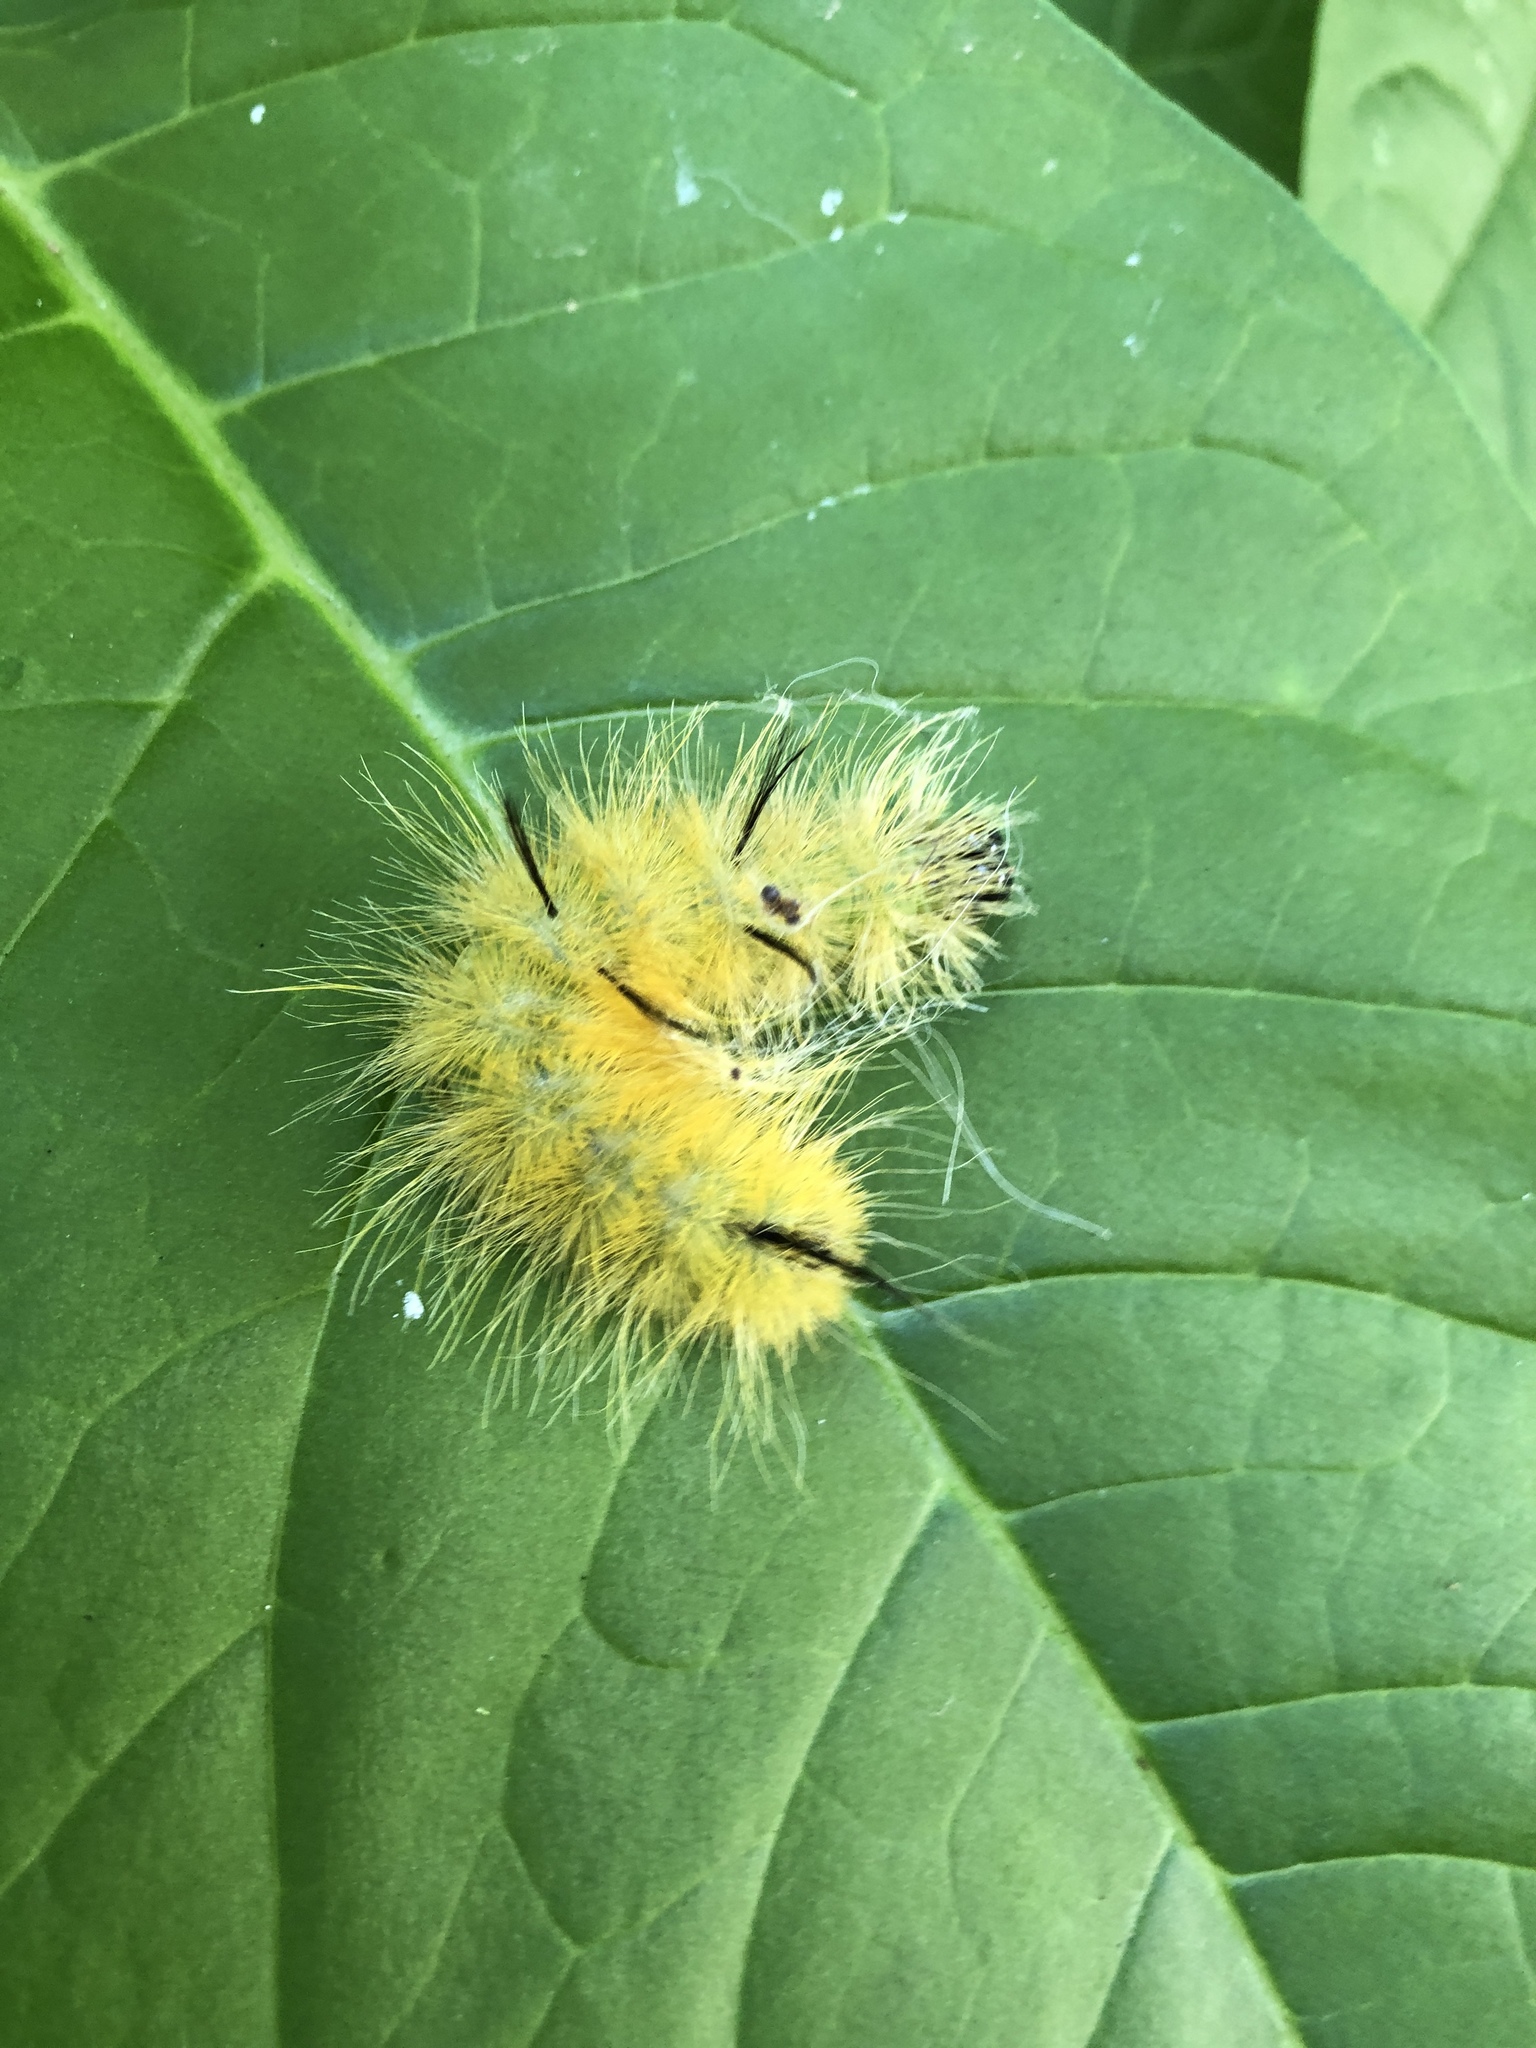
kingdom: Animalia
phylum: Arthropoda
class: Insecta
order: Lepidoptera
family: Noctuidae
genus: Acronicta
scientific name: Acronicta americana
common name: American dagger
